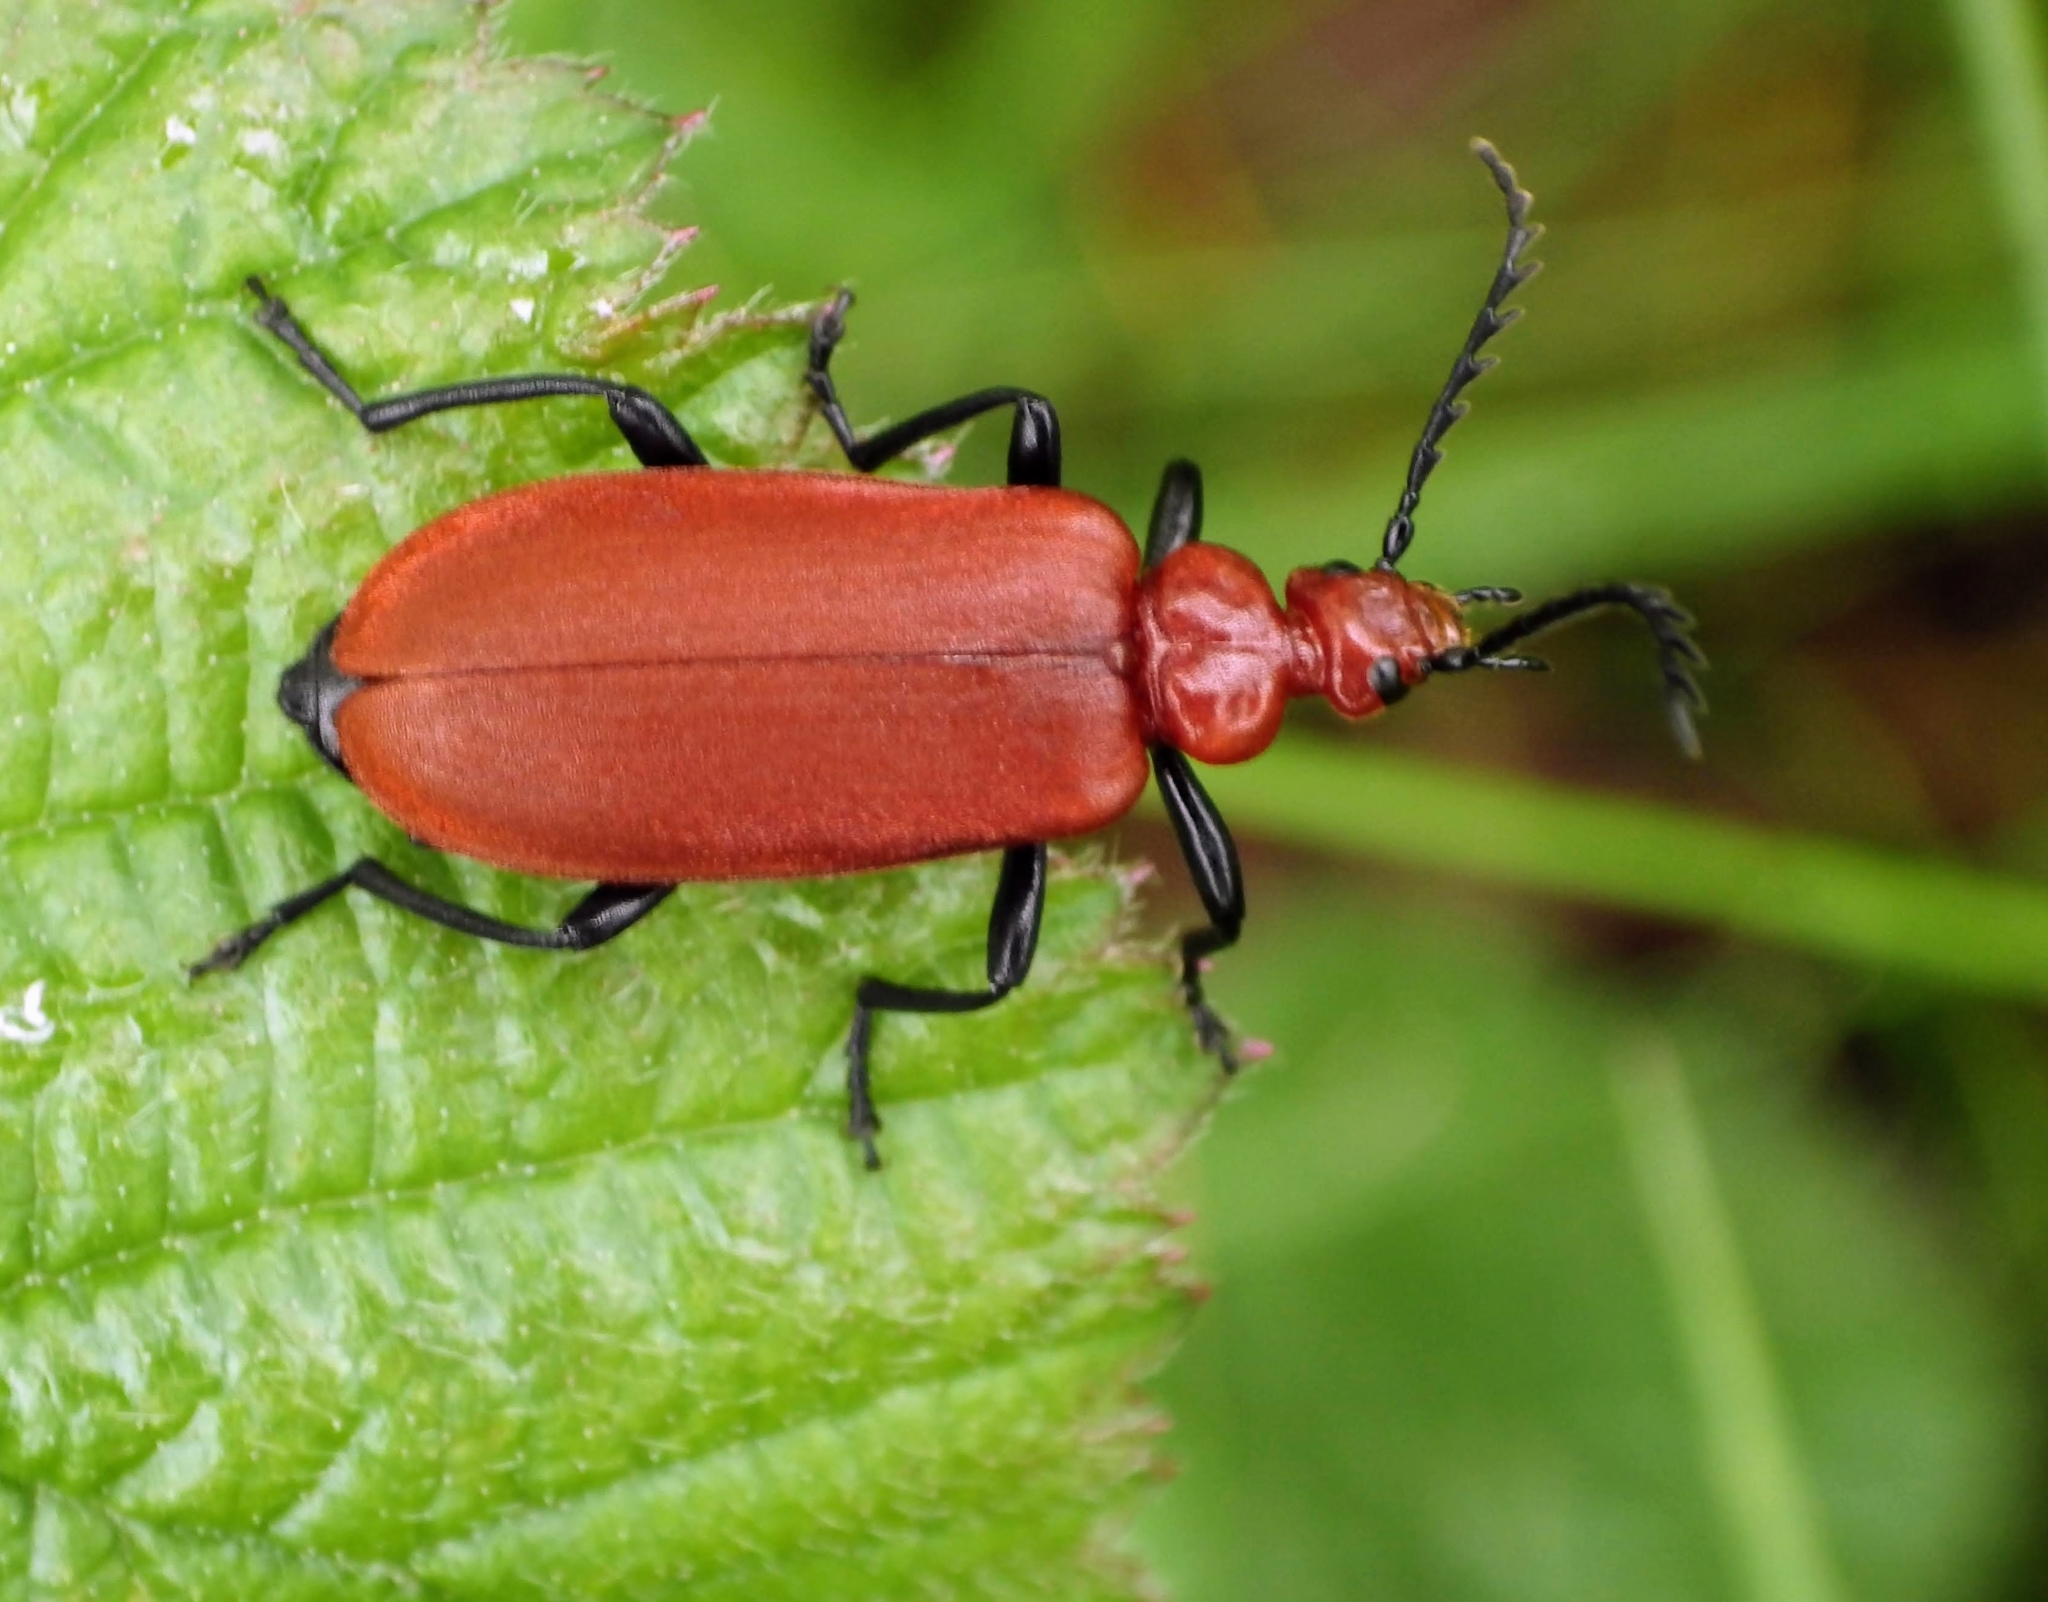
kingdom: Animalia
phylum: Arthropoda
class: Insecta
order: Coleoptera
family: Pyrochroidae
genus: Pyrochroa
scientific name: Pyrochroa serraticornis
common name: Red-headed cardinal beetle
